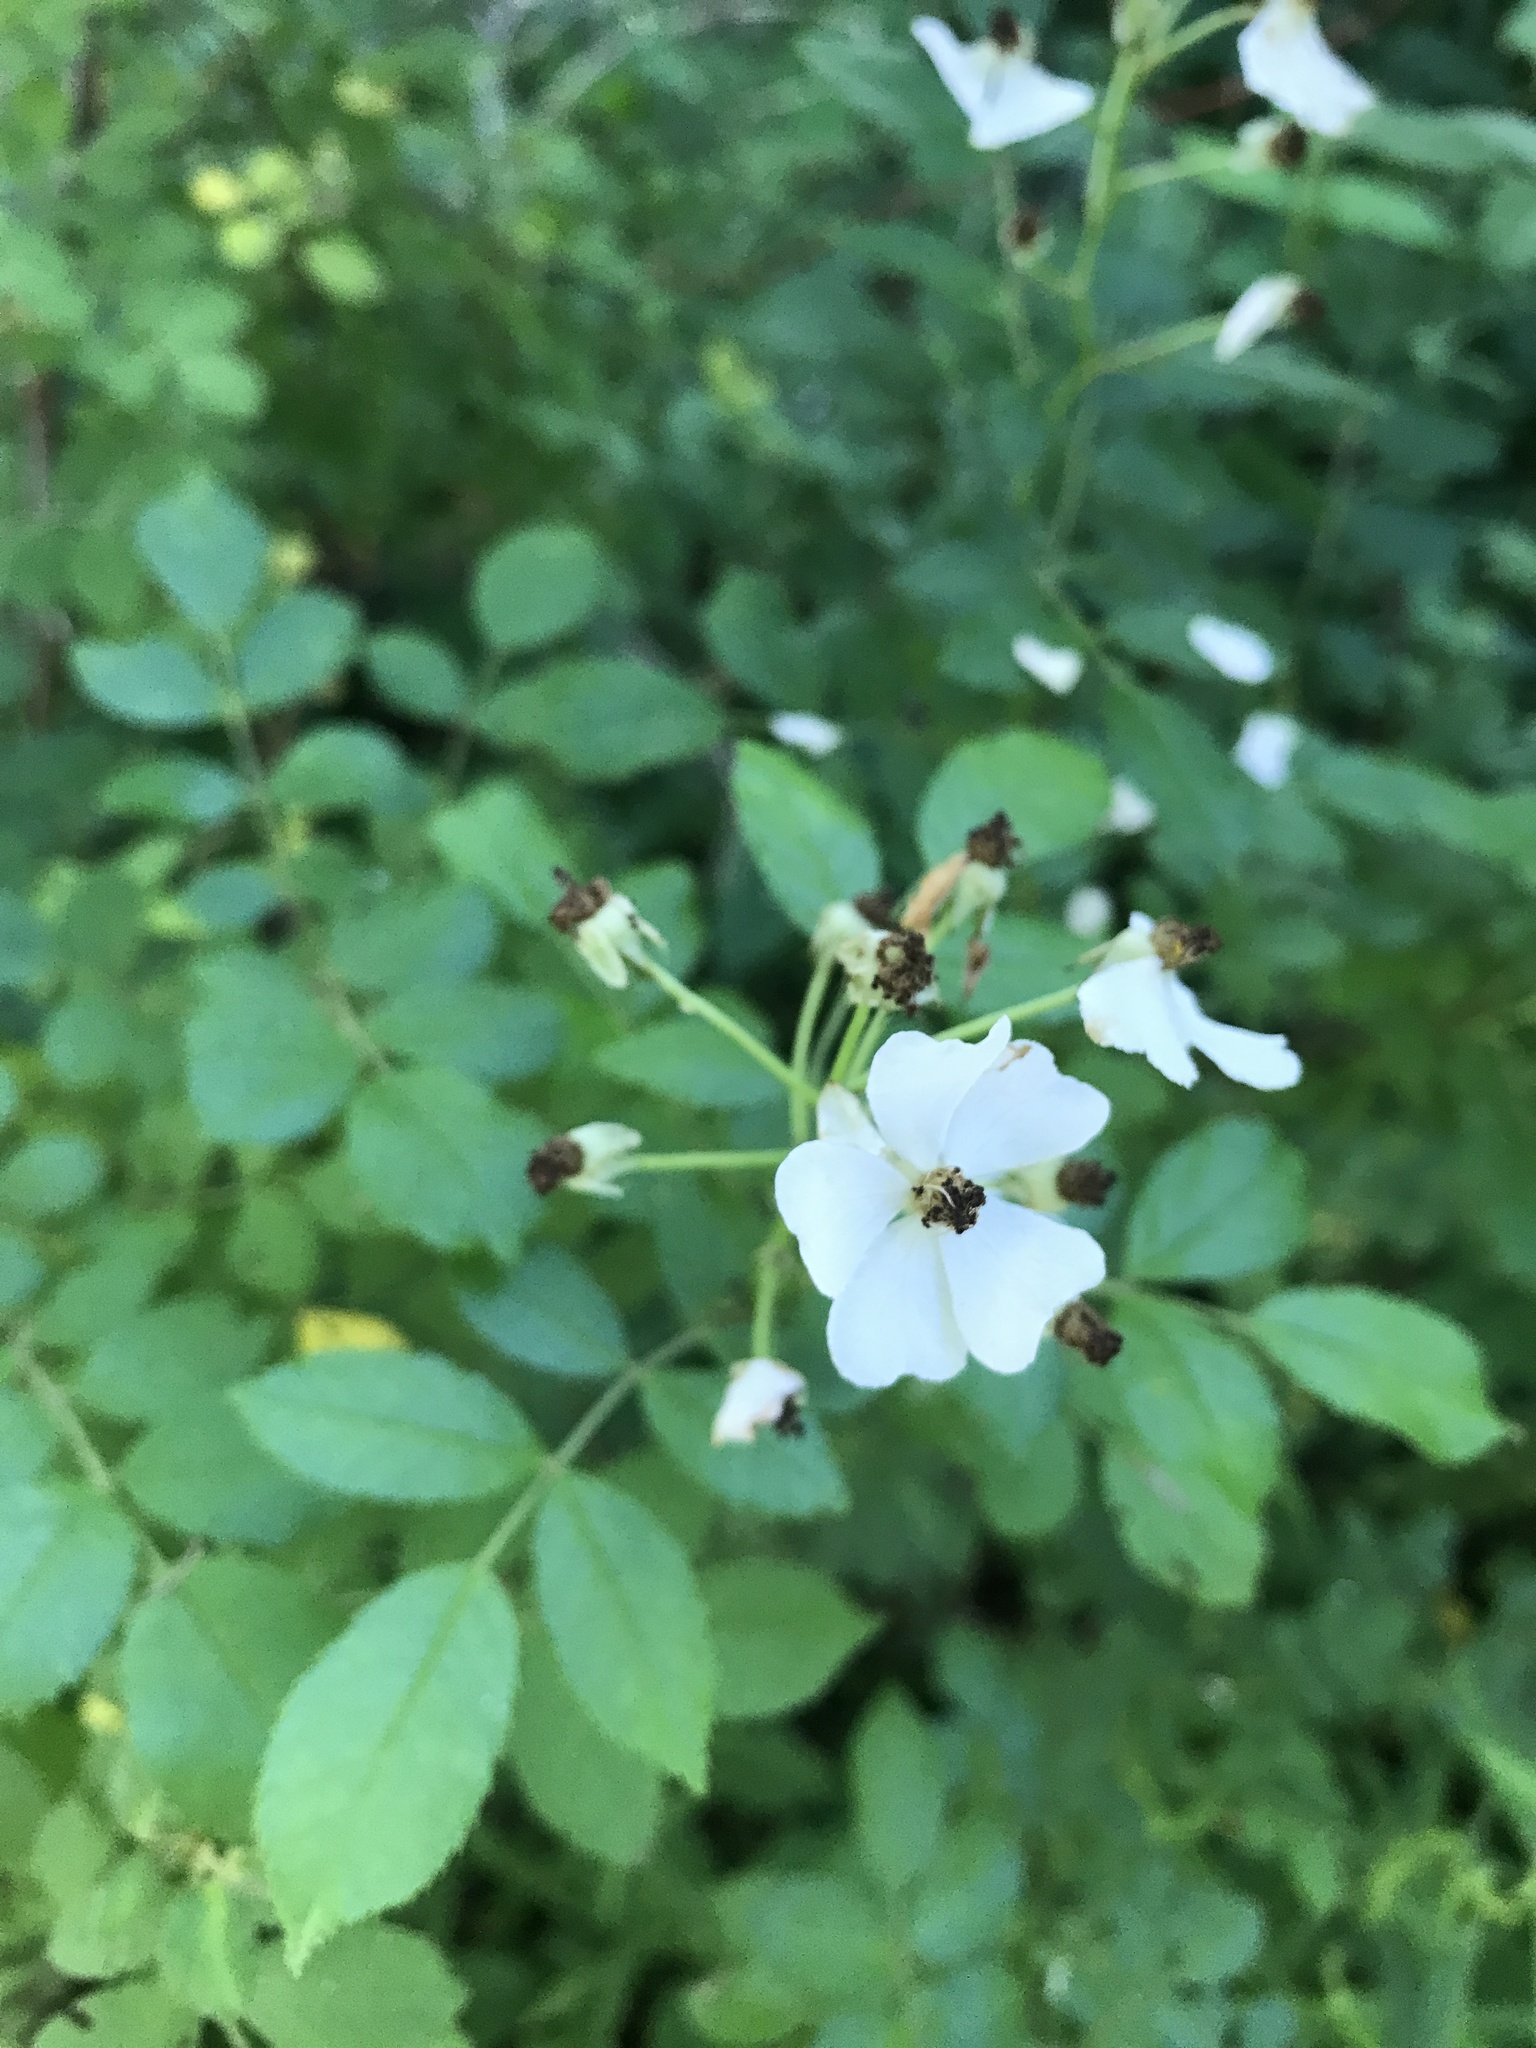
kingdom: Plantae
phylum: Tracheophyta
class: Magnoliopsida
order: Rosales
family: Rosaceae
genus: Rosa
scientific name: Rosa multiflora
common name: Multiflora rose
